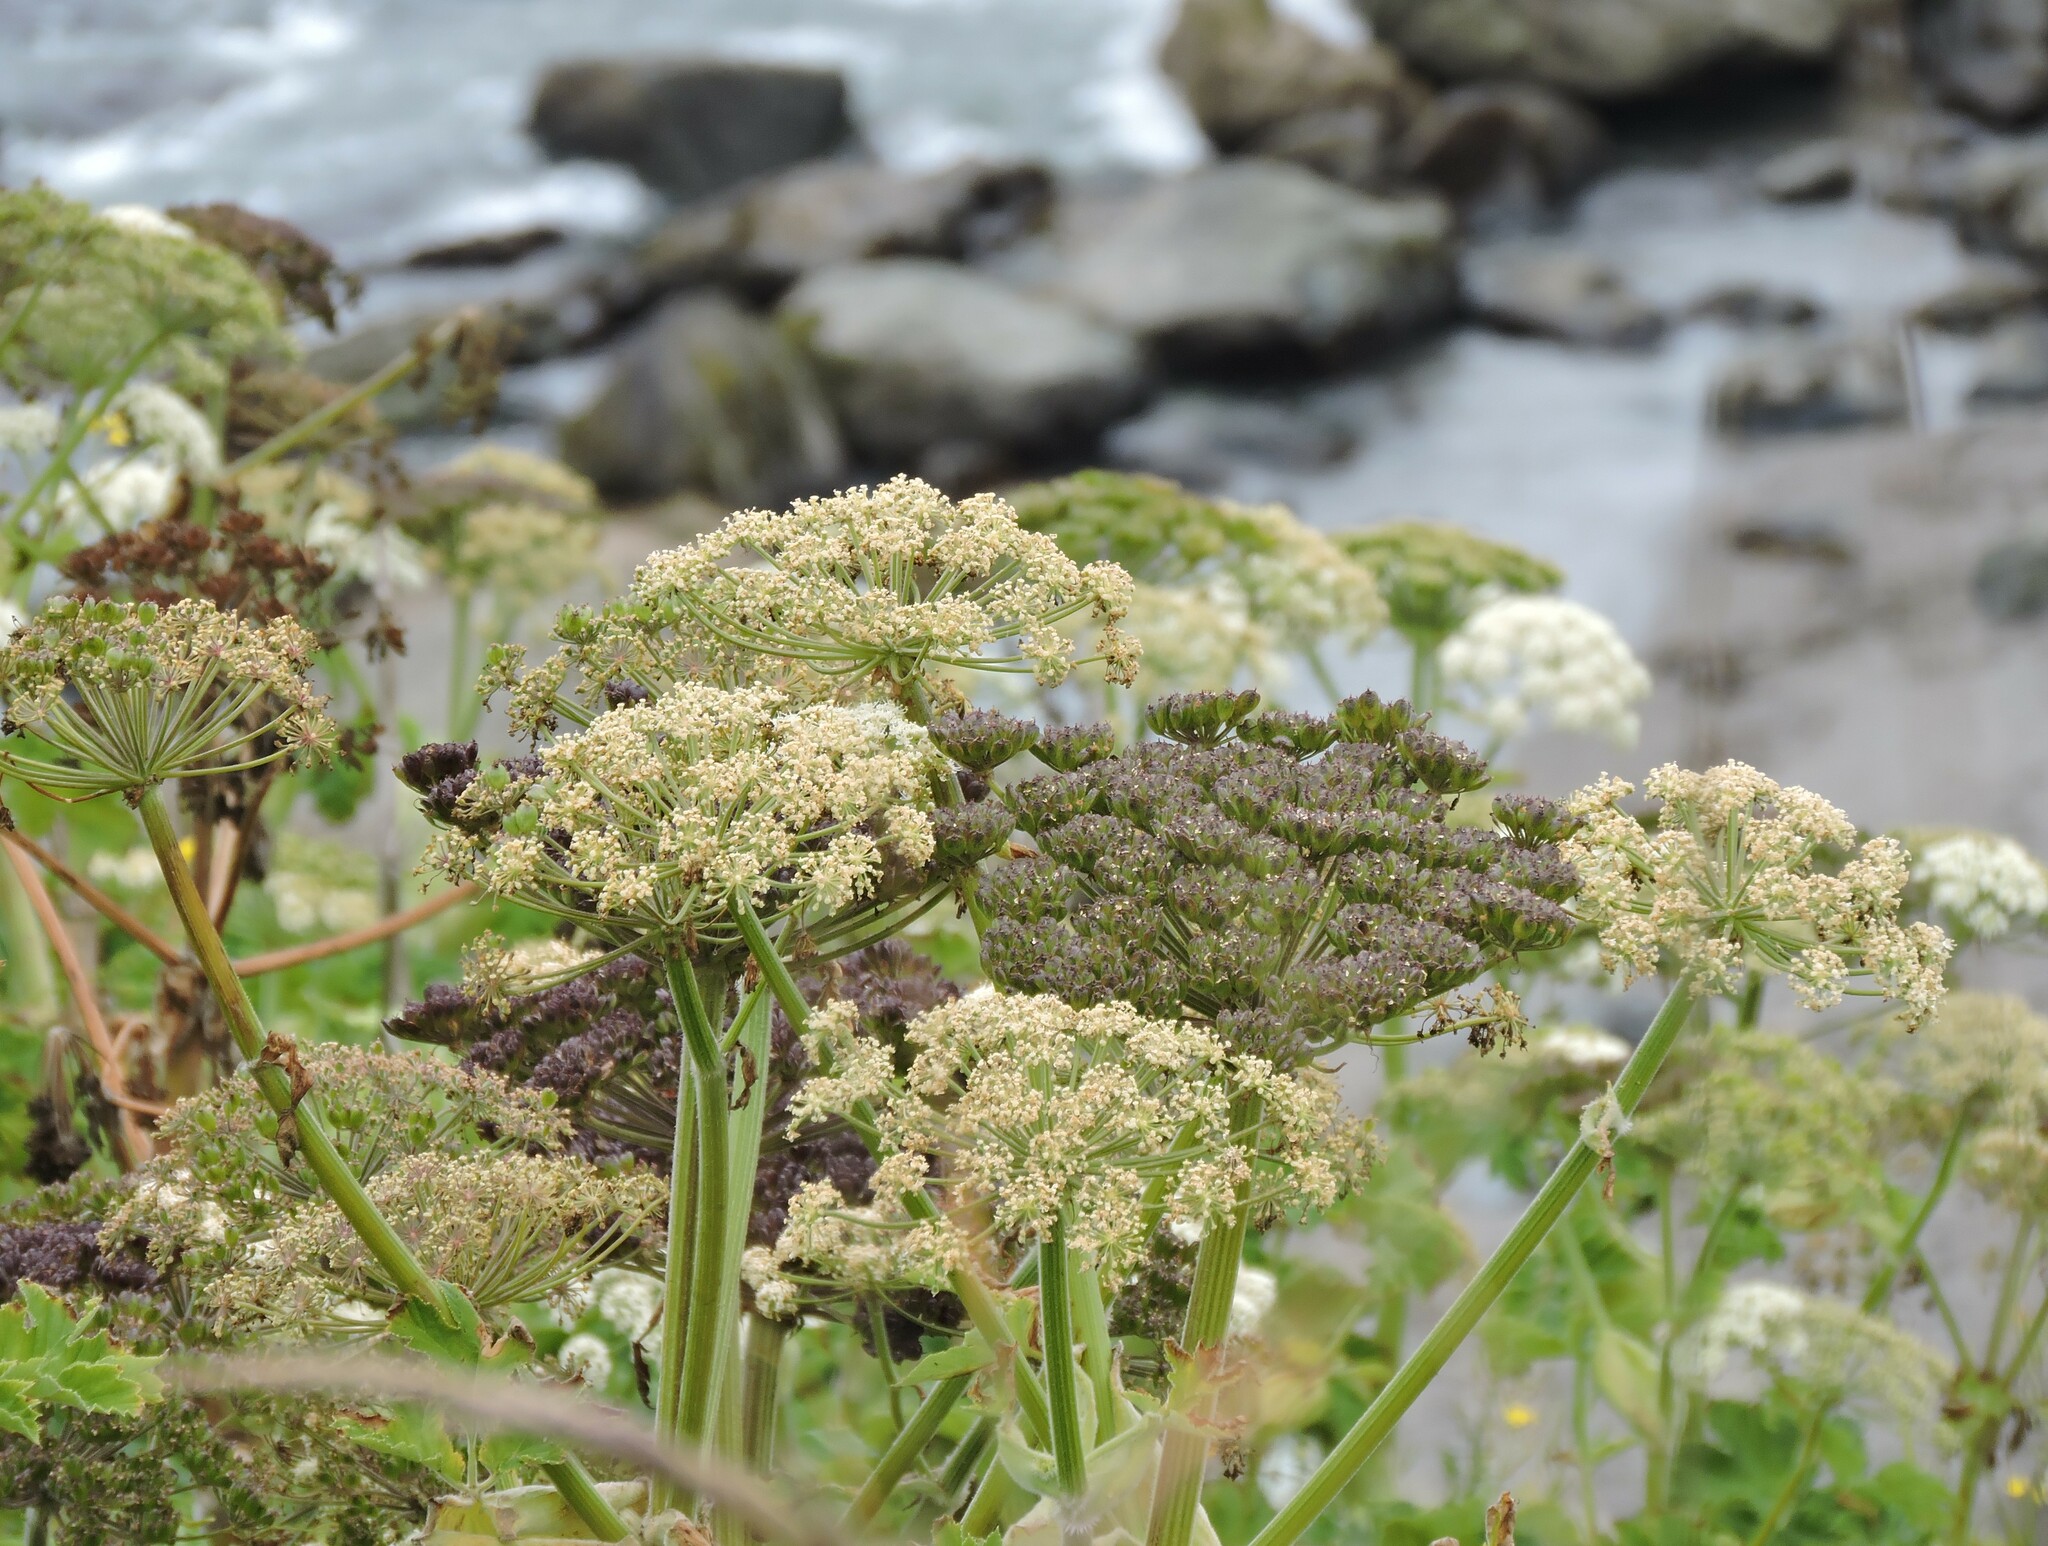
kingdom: Plantae
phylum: Tracheophyta
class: Magnoliopsida
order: Apiales
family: Apiaceae
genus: Heracleum
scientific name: Heracleum maximum
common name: American cow parsnip
